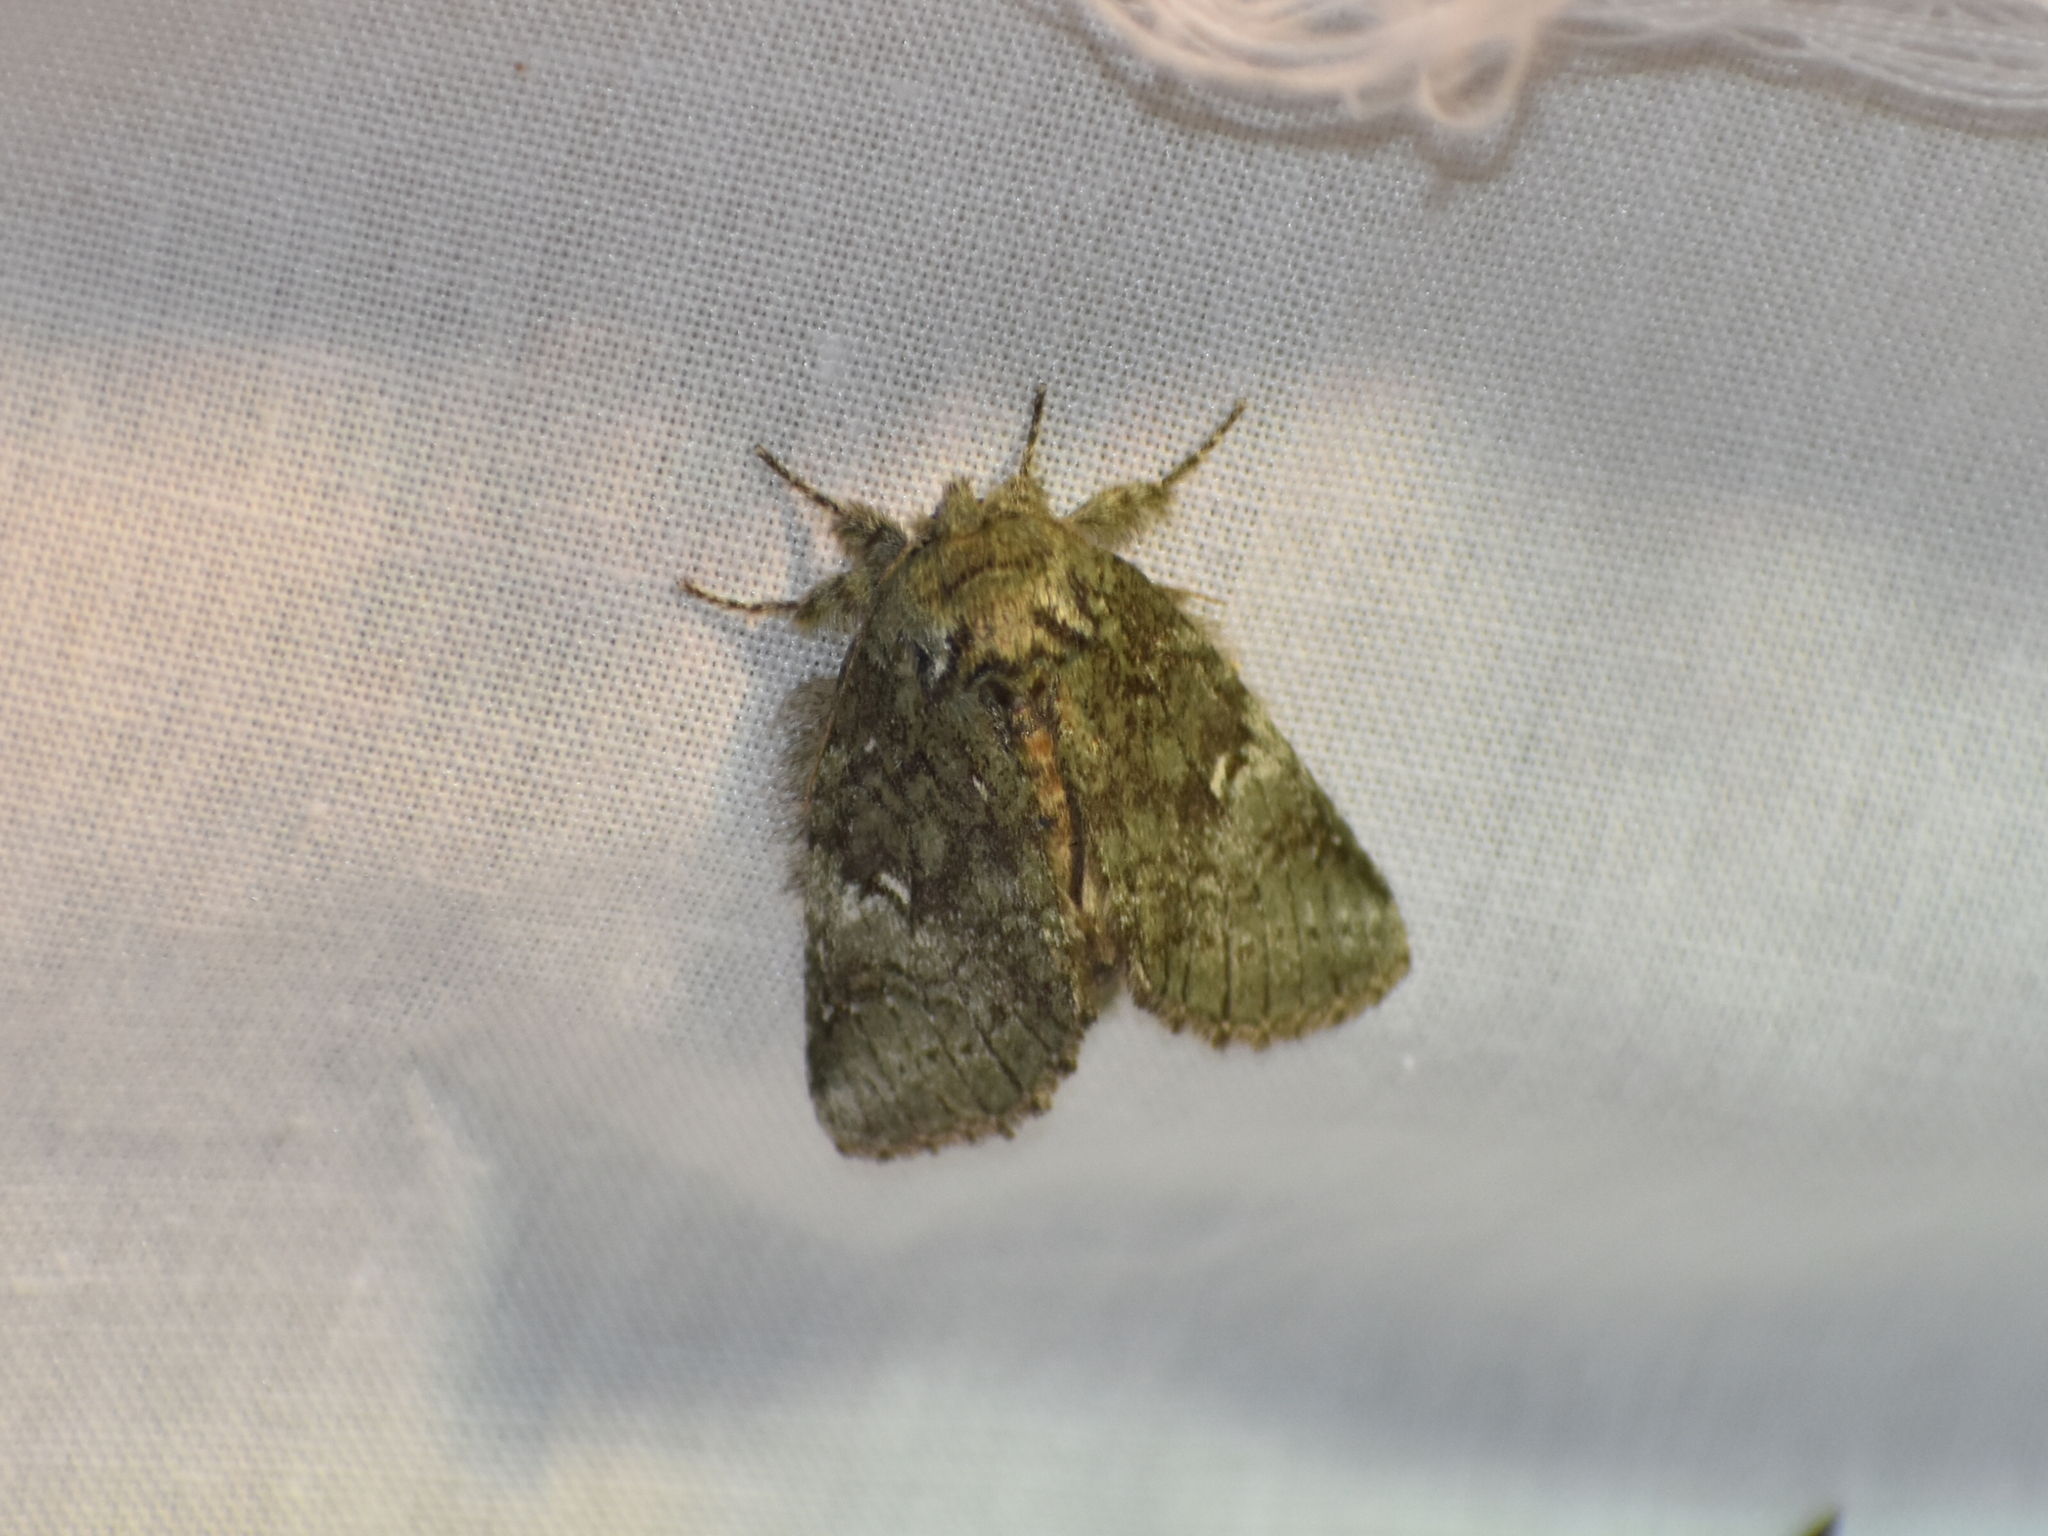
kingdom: Animalia
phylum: Arthropoda
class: Insecta
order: Lepidoptera
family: Notodontidae
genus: Disphragis
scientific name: Disphragis Cecrita guttivitta
